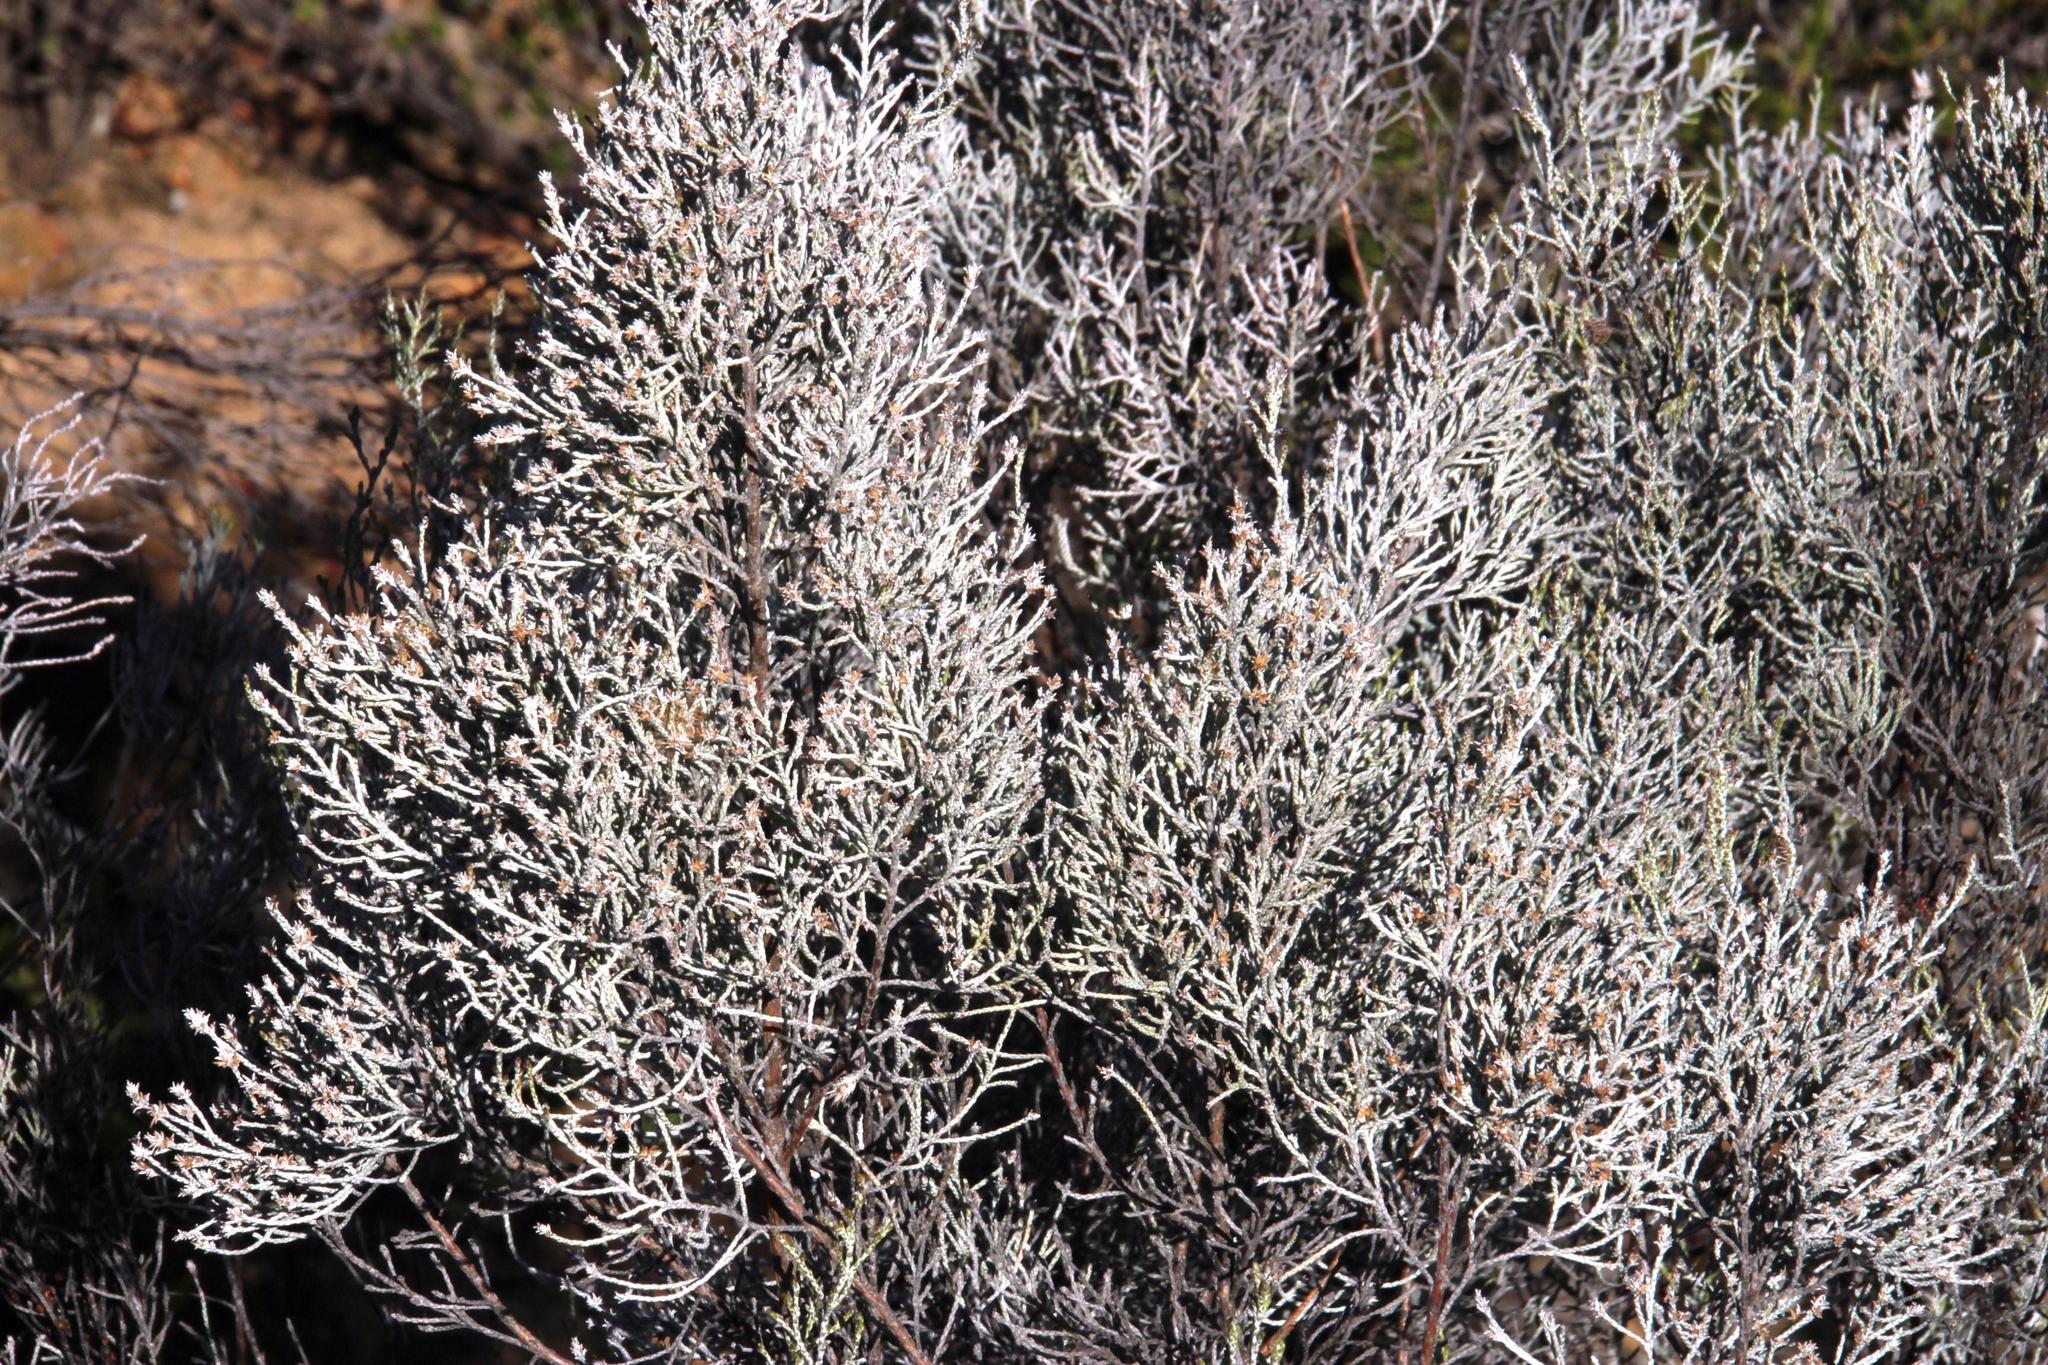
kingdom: Plantae
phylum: Tracheophyta
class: Magnoliopsida
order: Asterales
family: Asteraceae
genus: Dicerothamnus
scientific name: Dicerothamnus rhinocerotis
